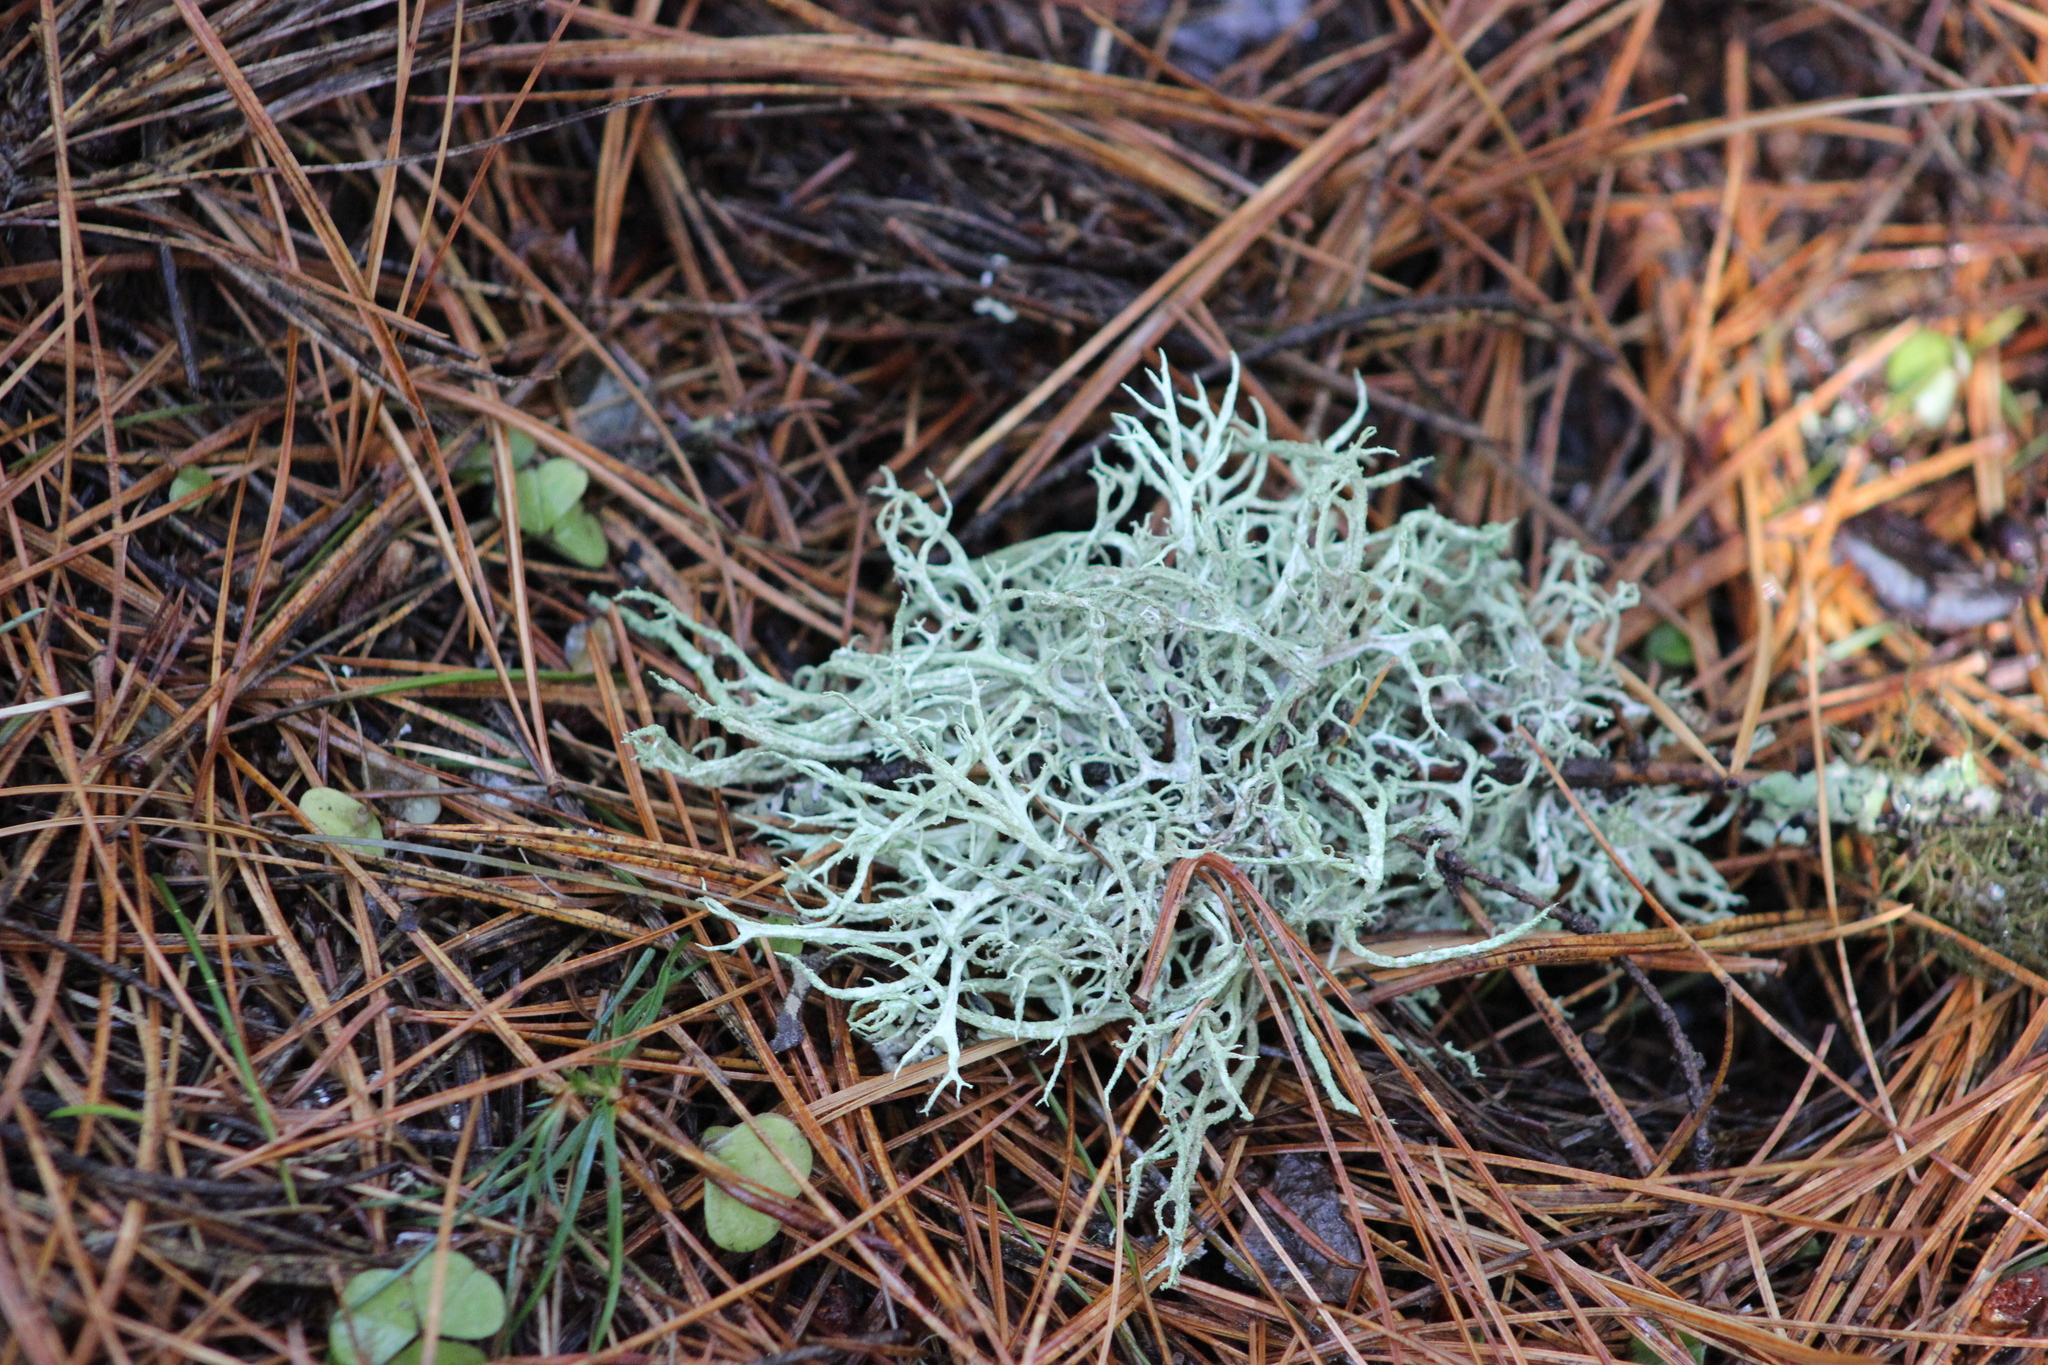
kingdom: Fungi
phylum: Ascomycota
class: Lecanoromycetes
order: Lecanorales
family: Parmeliaceae
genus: Evernia
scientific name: Evernia mesomorpha
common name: Boreal oak moss lichen
